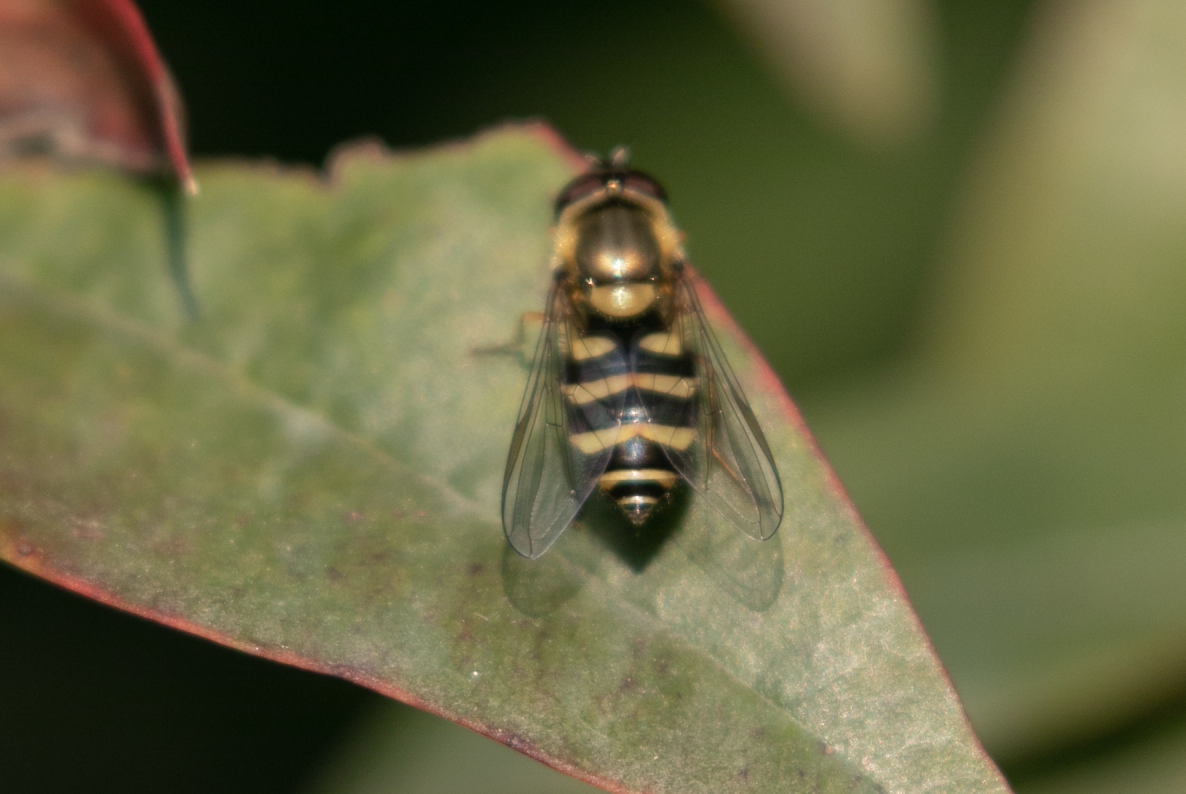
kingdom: Animalia
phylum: Arthropoda
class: Insecta
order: Diptera
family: Syrphidae
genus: Syrphus
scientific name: Syrphus
